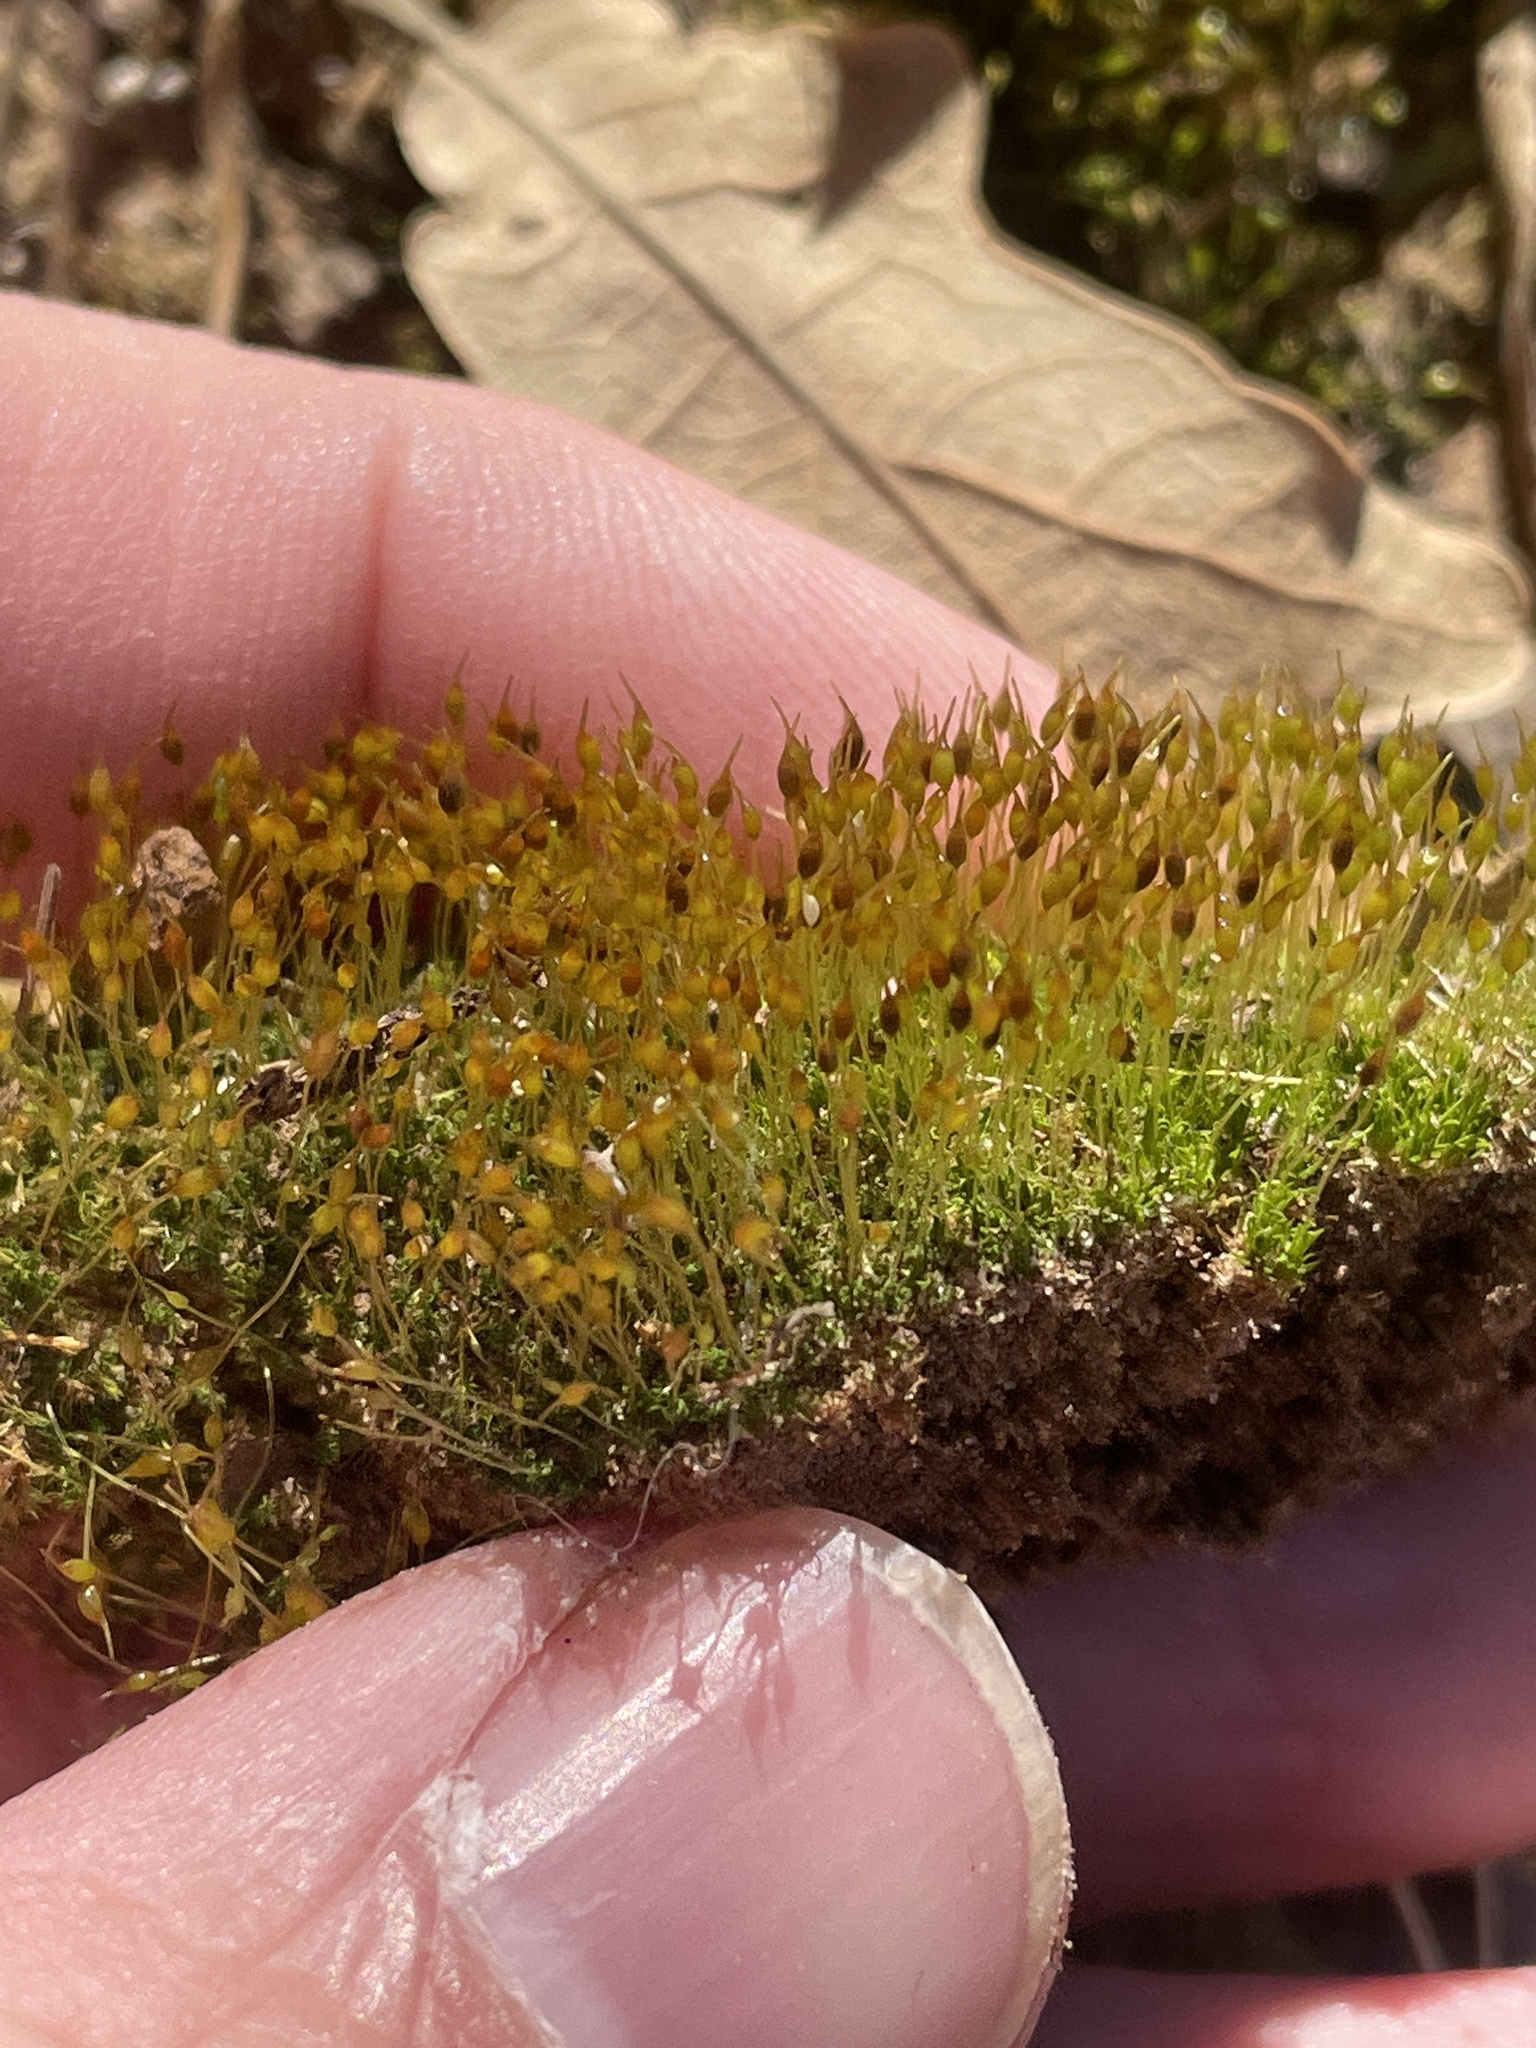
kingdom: Plantae
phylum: Bryophyta
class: Bryopsida
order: Funariales
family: Funariaceae
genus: Physcomitrium
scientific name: Physcomitrium pyriforme
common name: Common bladder-moss
